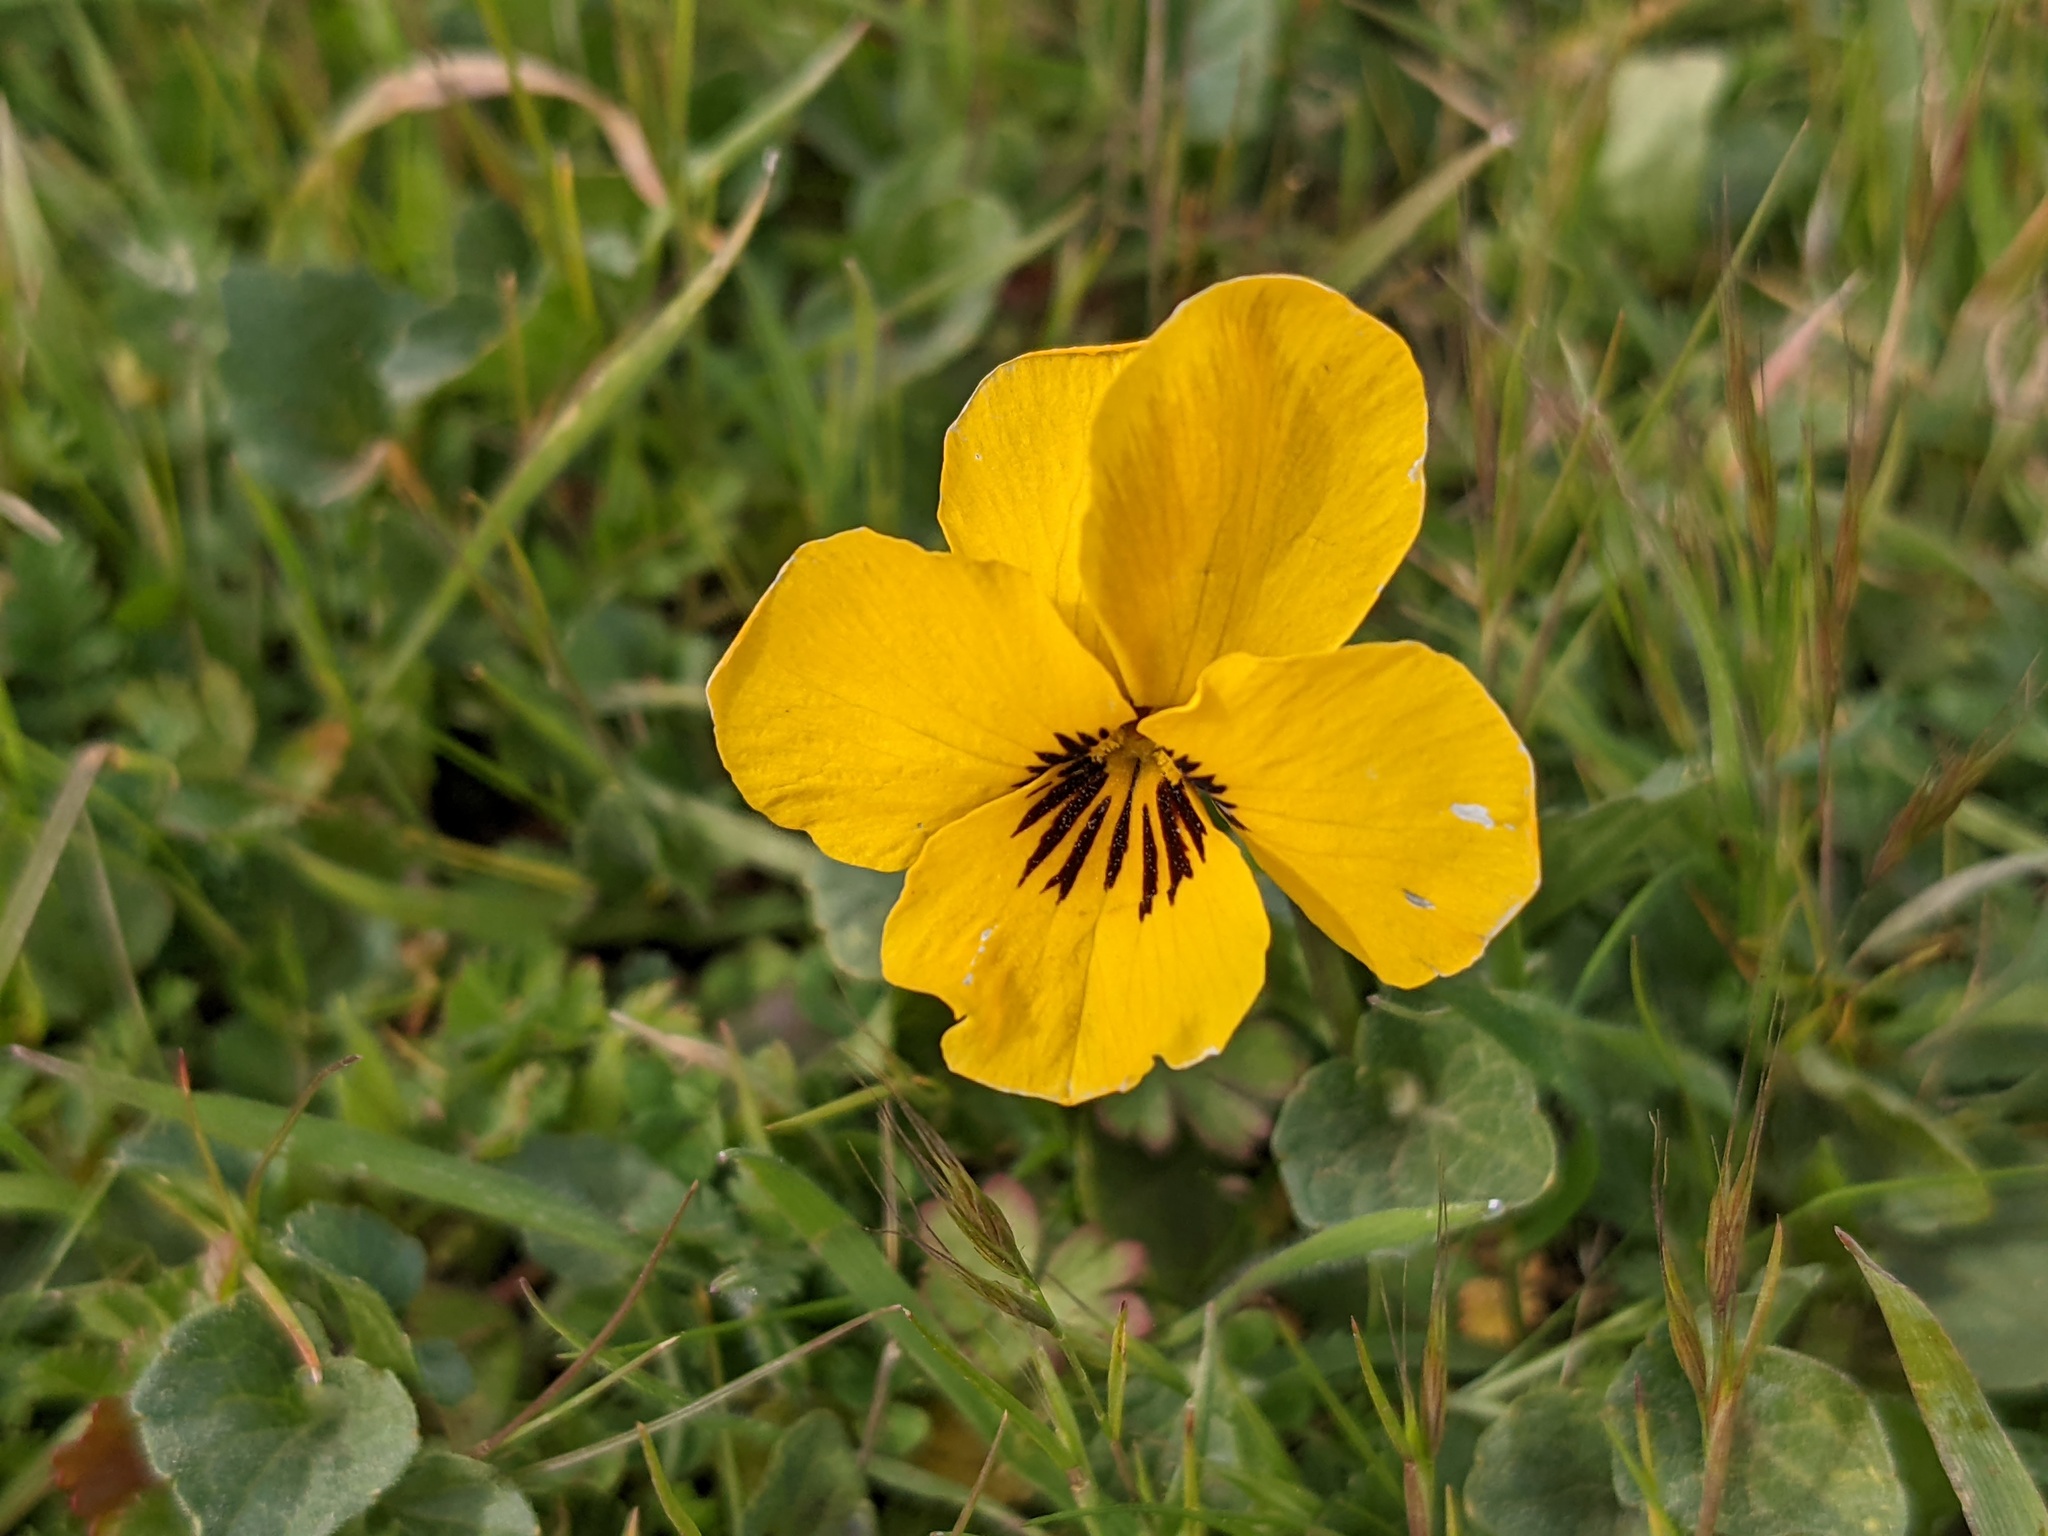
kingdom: Plantae
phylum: Tracheophyta
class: Magnoliopsida
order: Malpighiales
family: Violaceae
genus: Viola
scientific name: Viola pedunculata
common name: California golden violet
